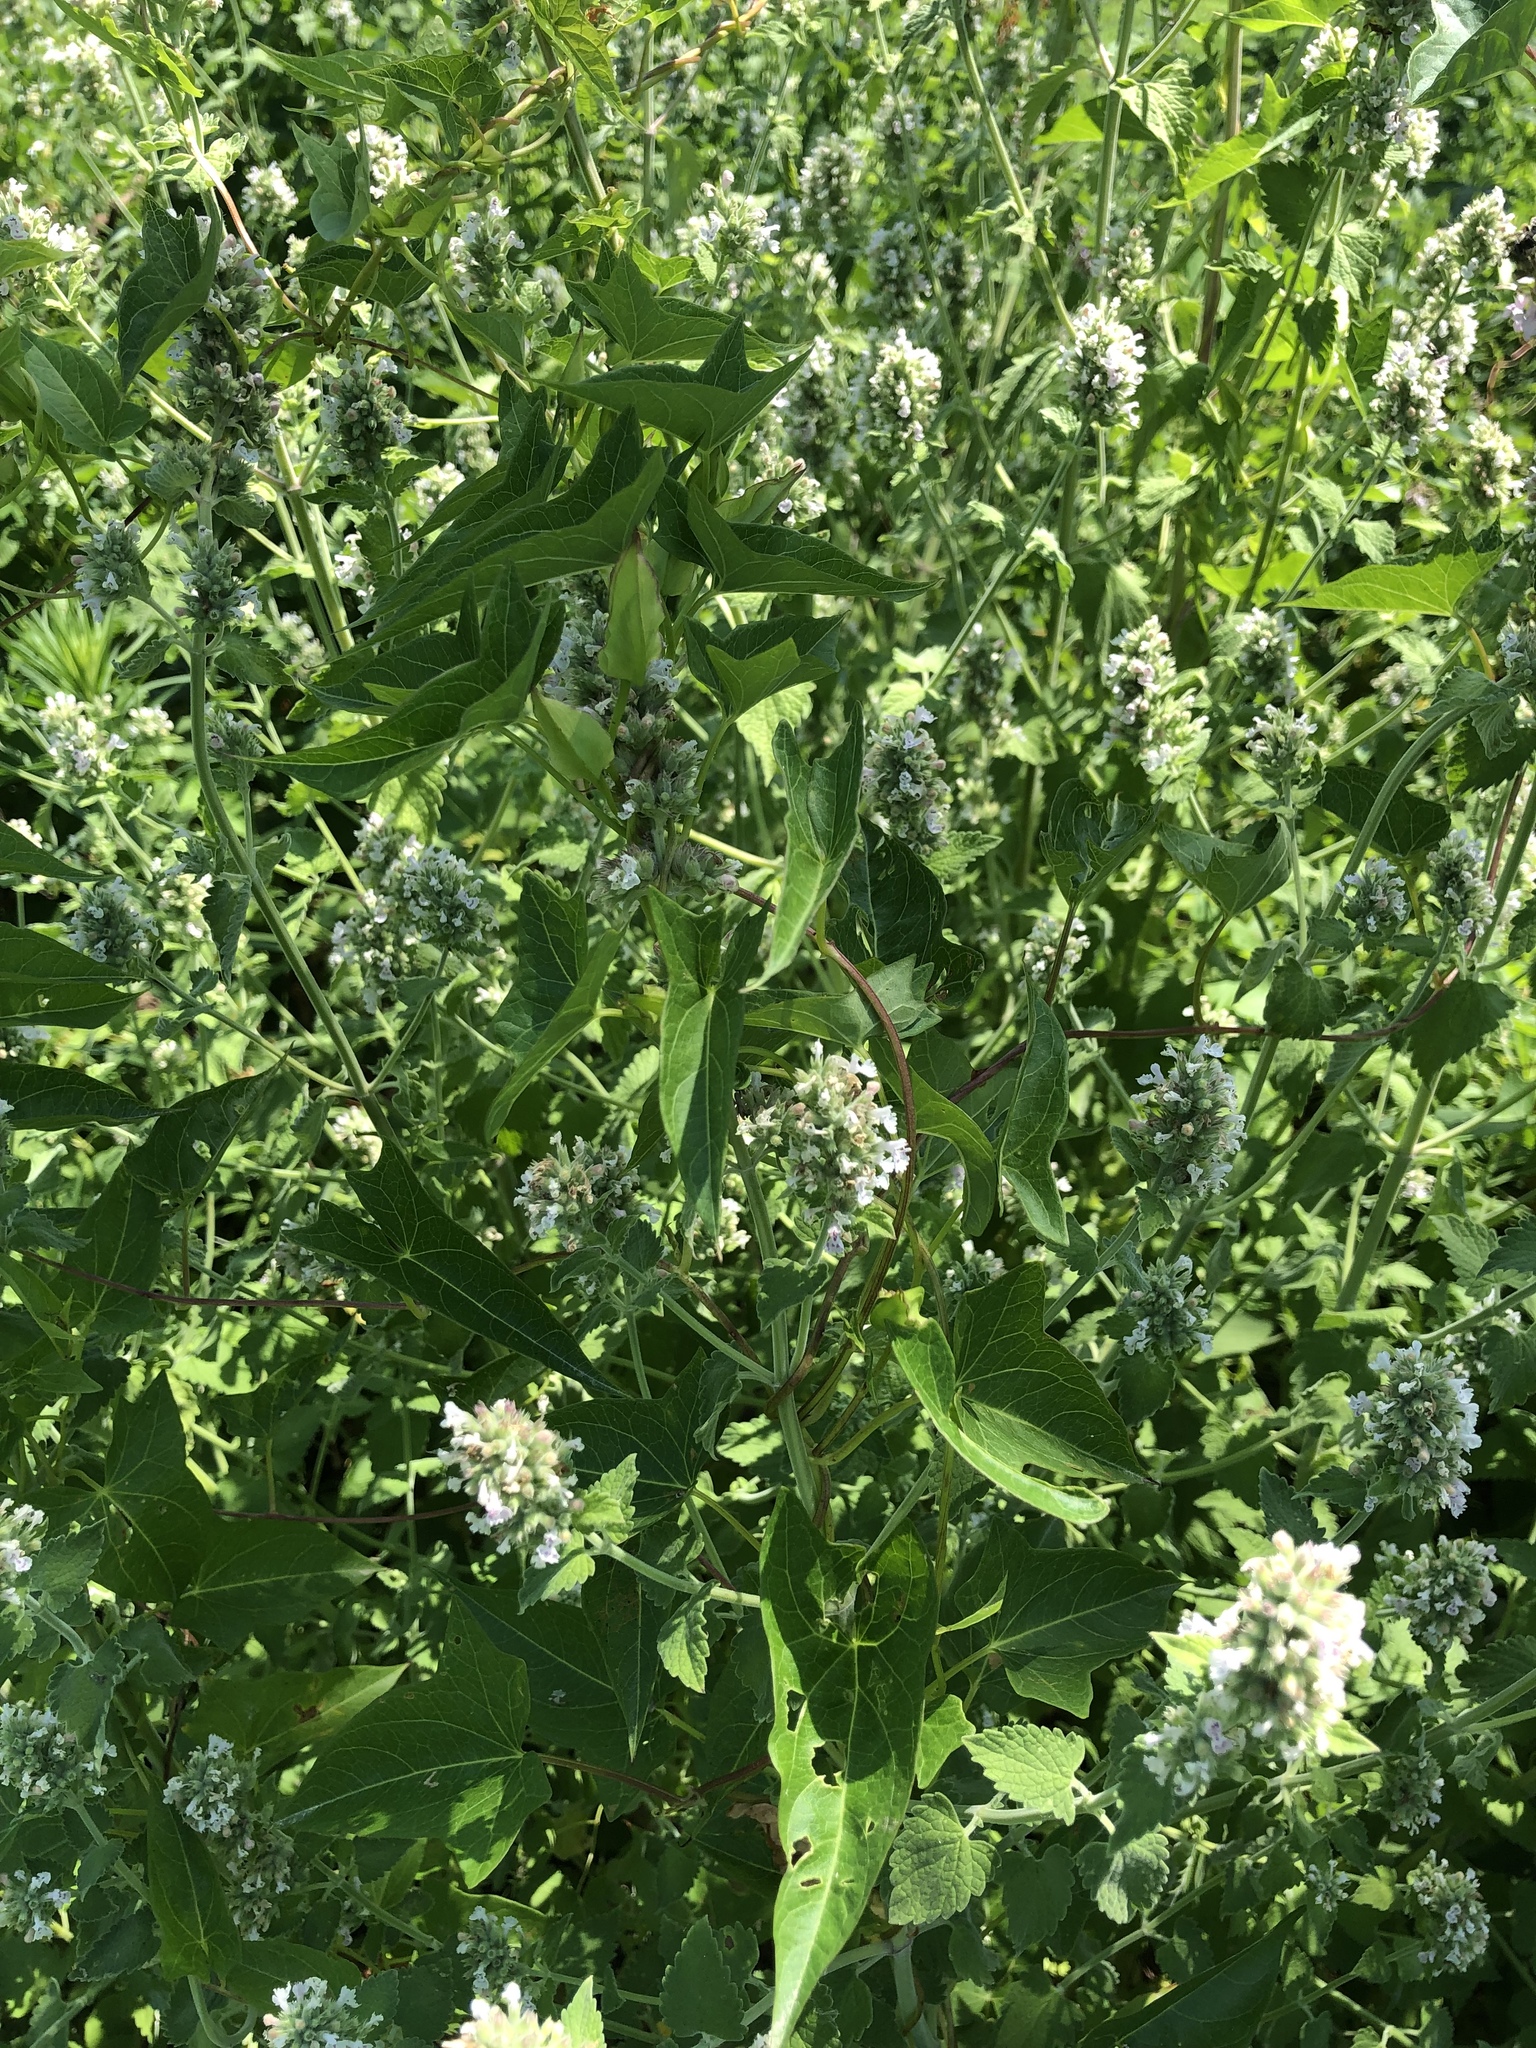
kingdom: Plantae
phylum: Tracheophyta
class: Magnoliopsida
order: Lamiales
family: Lamiaceae
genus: Nepeta
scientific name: Nepeta cataria
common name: Catnip
